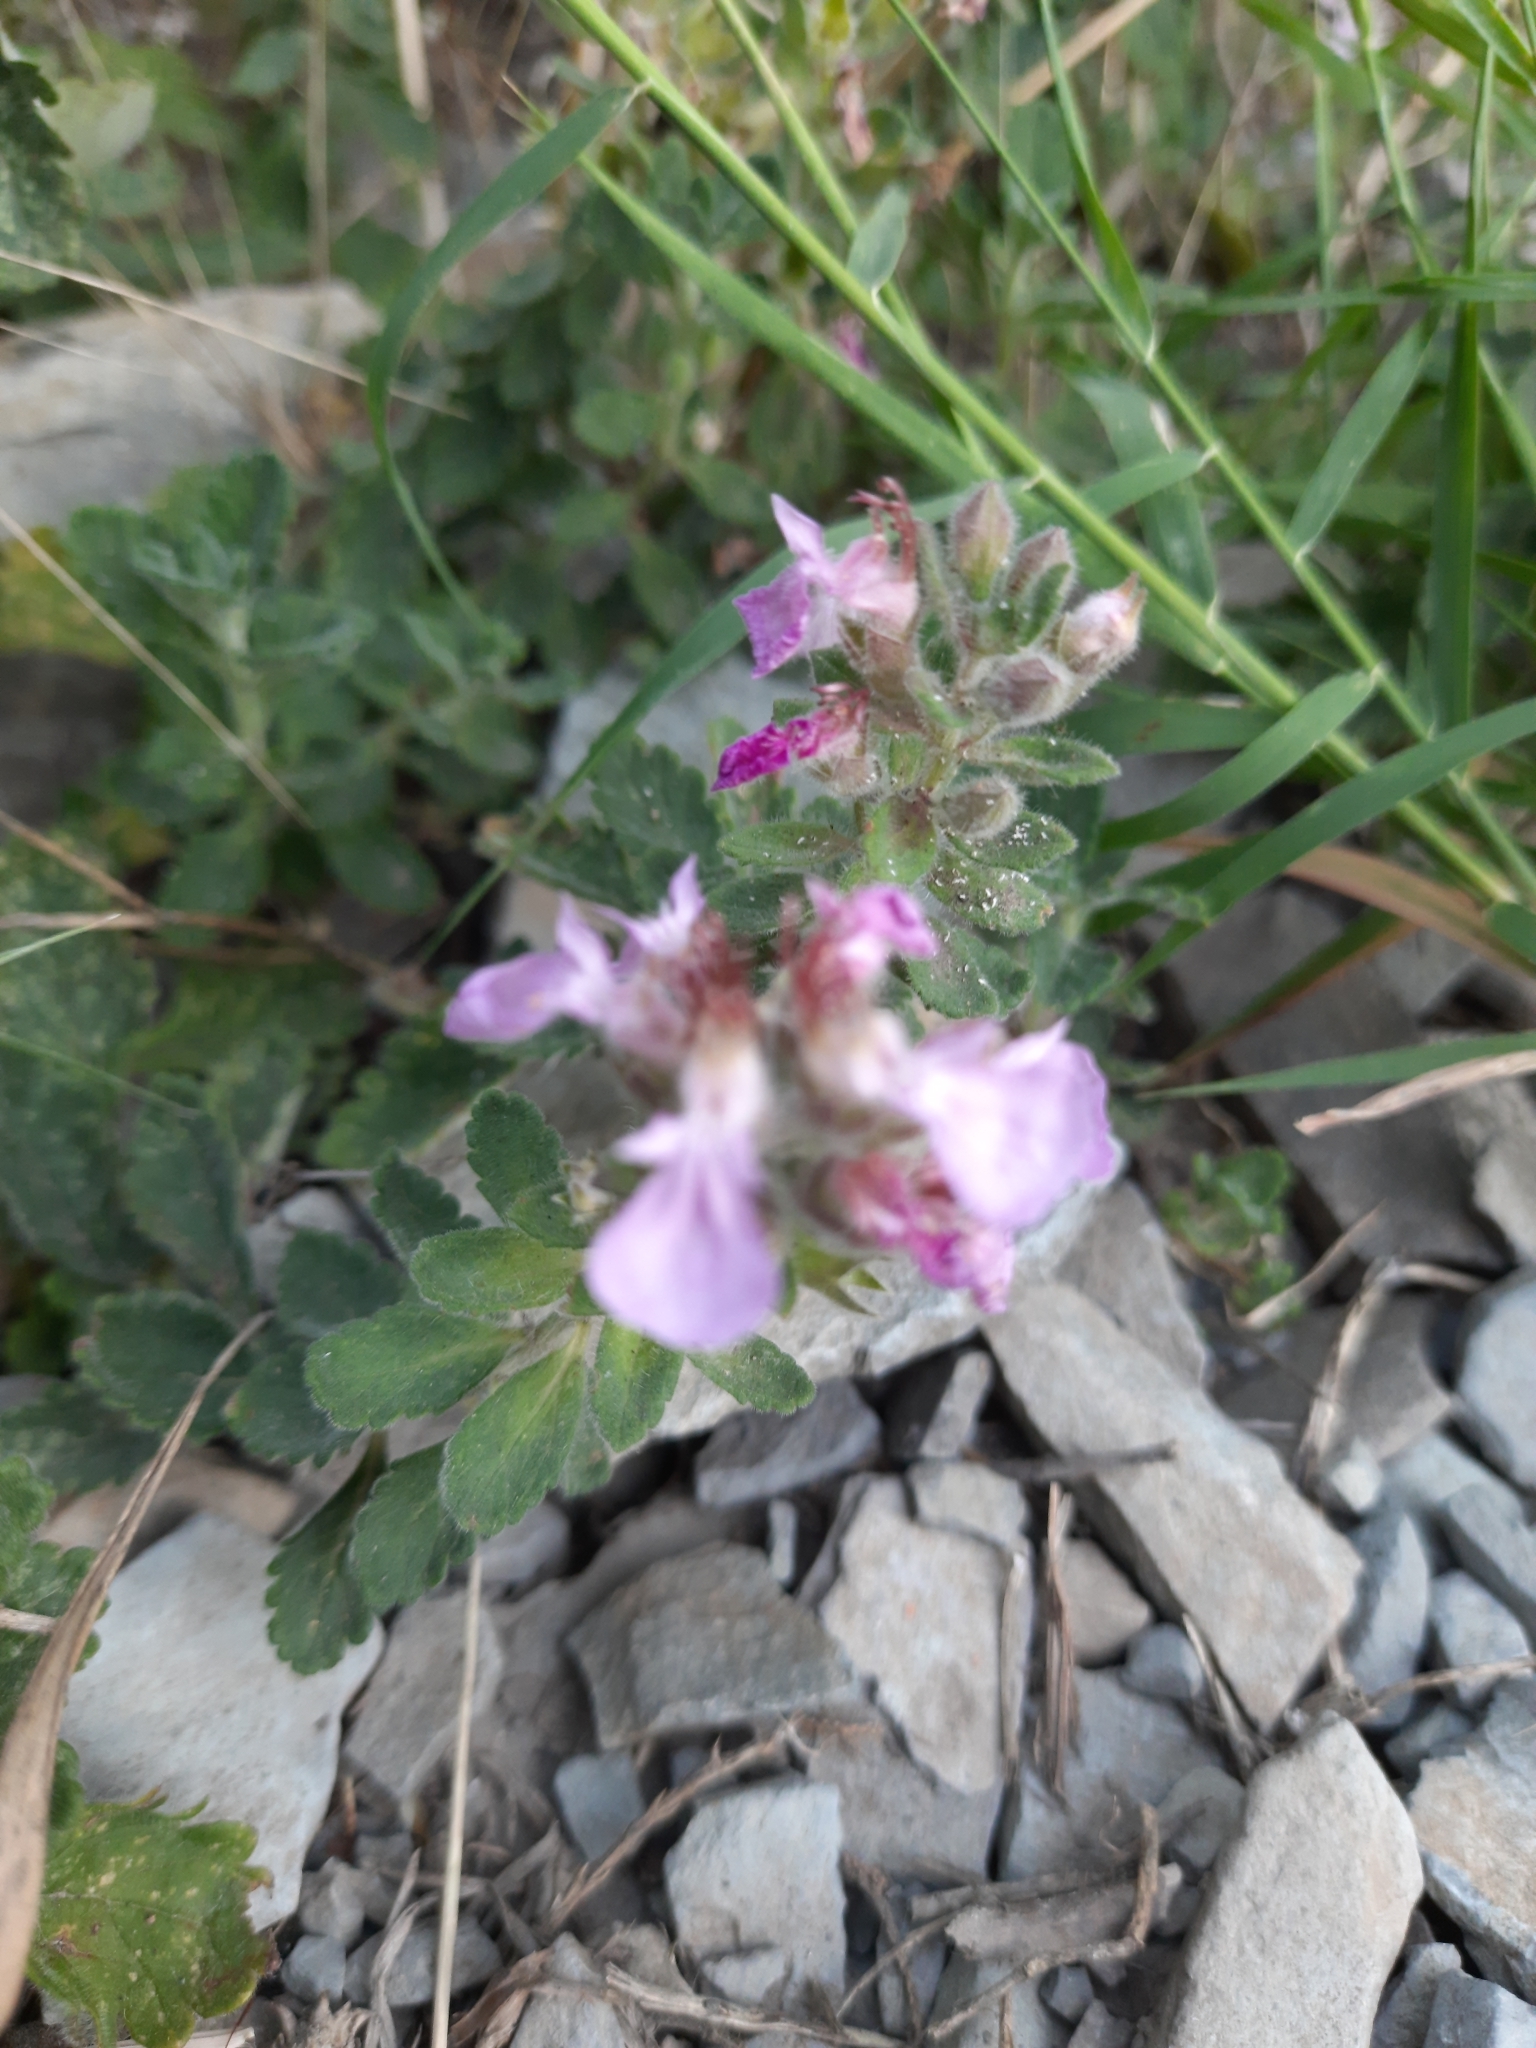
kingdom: Plantae
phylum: Tracheophyta
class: Magnoliopsida
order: Lamiales
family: Lamiaceae
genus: Teucrium
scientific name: Teucrium chamaedrys
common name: Wall germander
